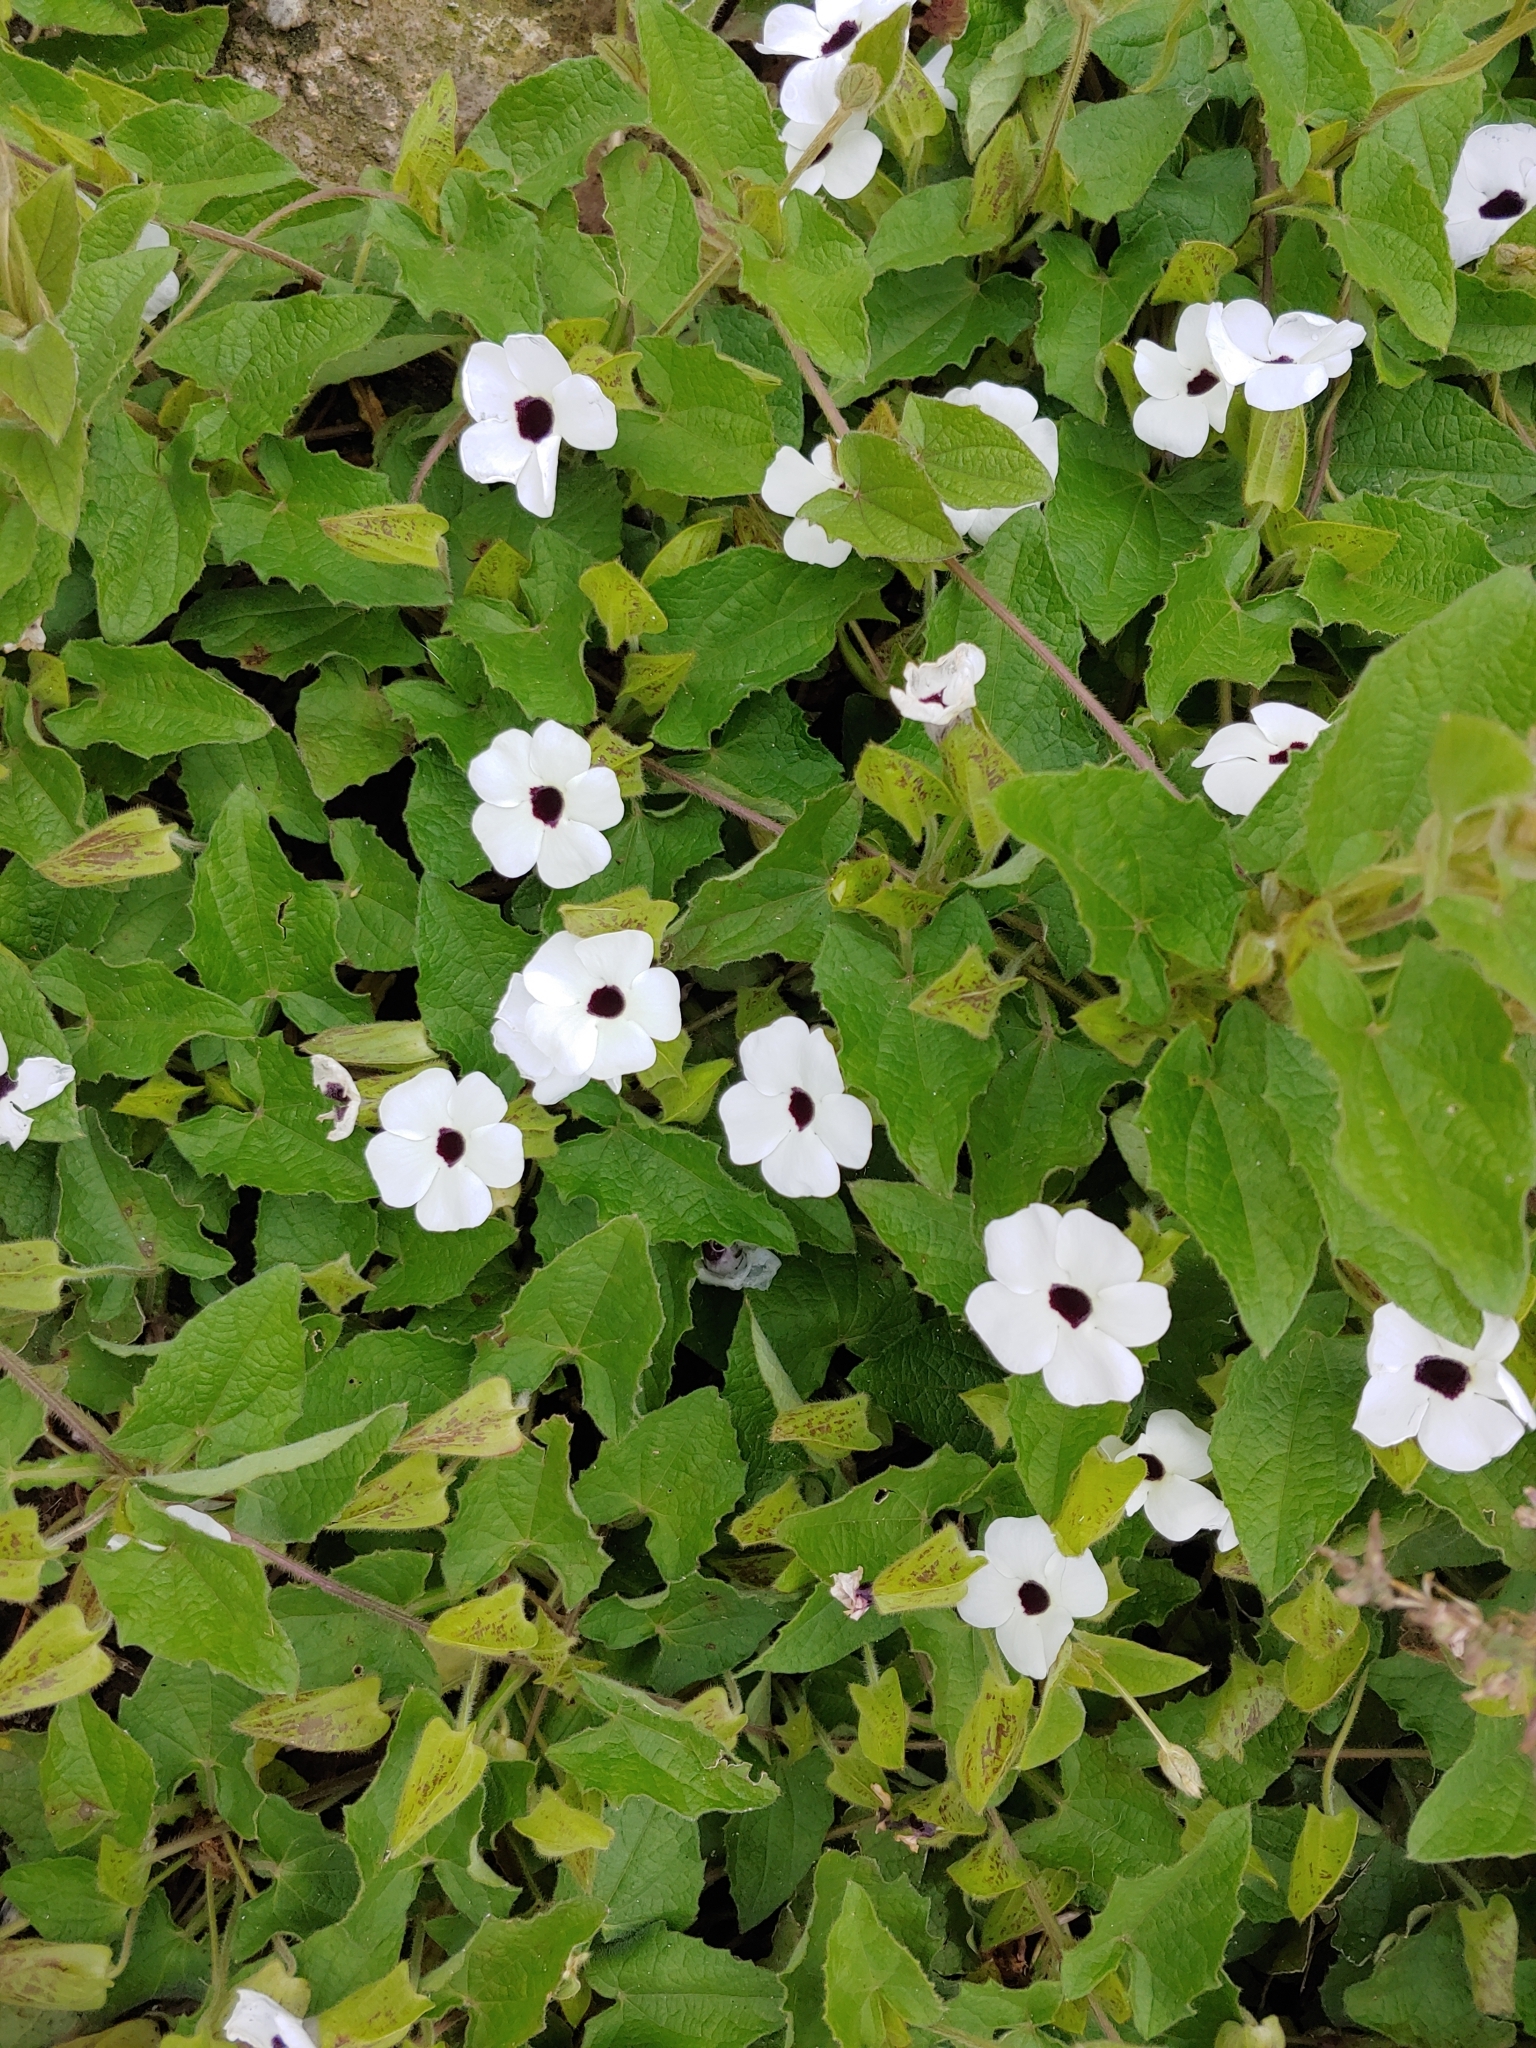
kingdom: Plantae
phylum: Tracheophyta
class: Magnoliopsida
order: Lamiales
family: Acanthaceae
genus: Thunbergia
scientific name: Thunbergia alata
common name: Blackeyed susan vine
